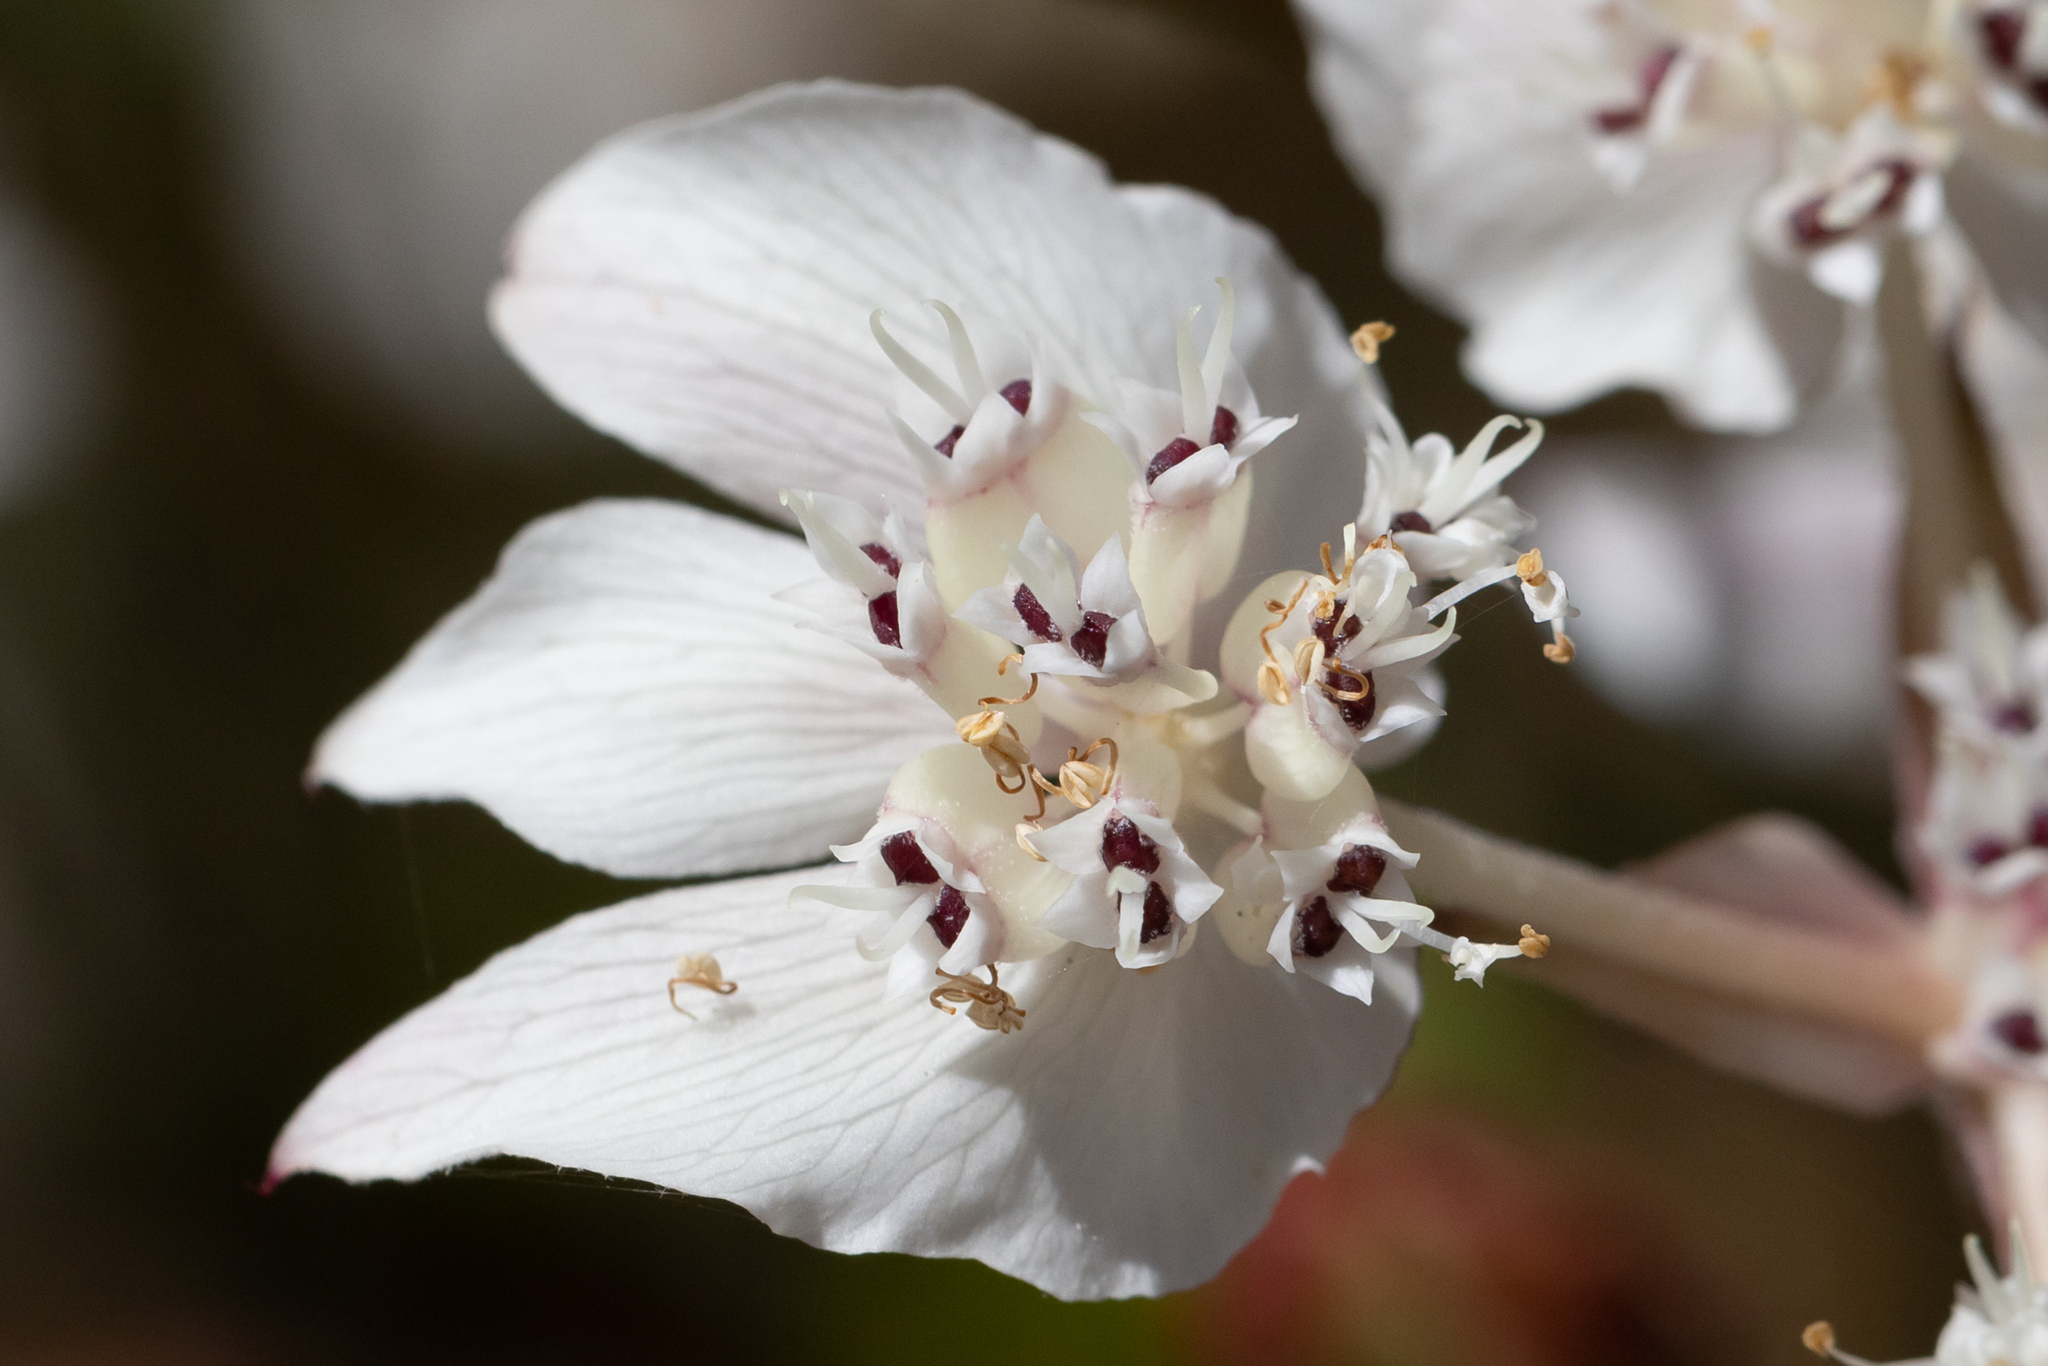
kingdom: Plantae
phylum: Tracheophyta
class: Magnoliopsida
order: Apiales
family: Apiaceae
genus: Xanthosia
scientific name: Xanthosia rotundifolia
